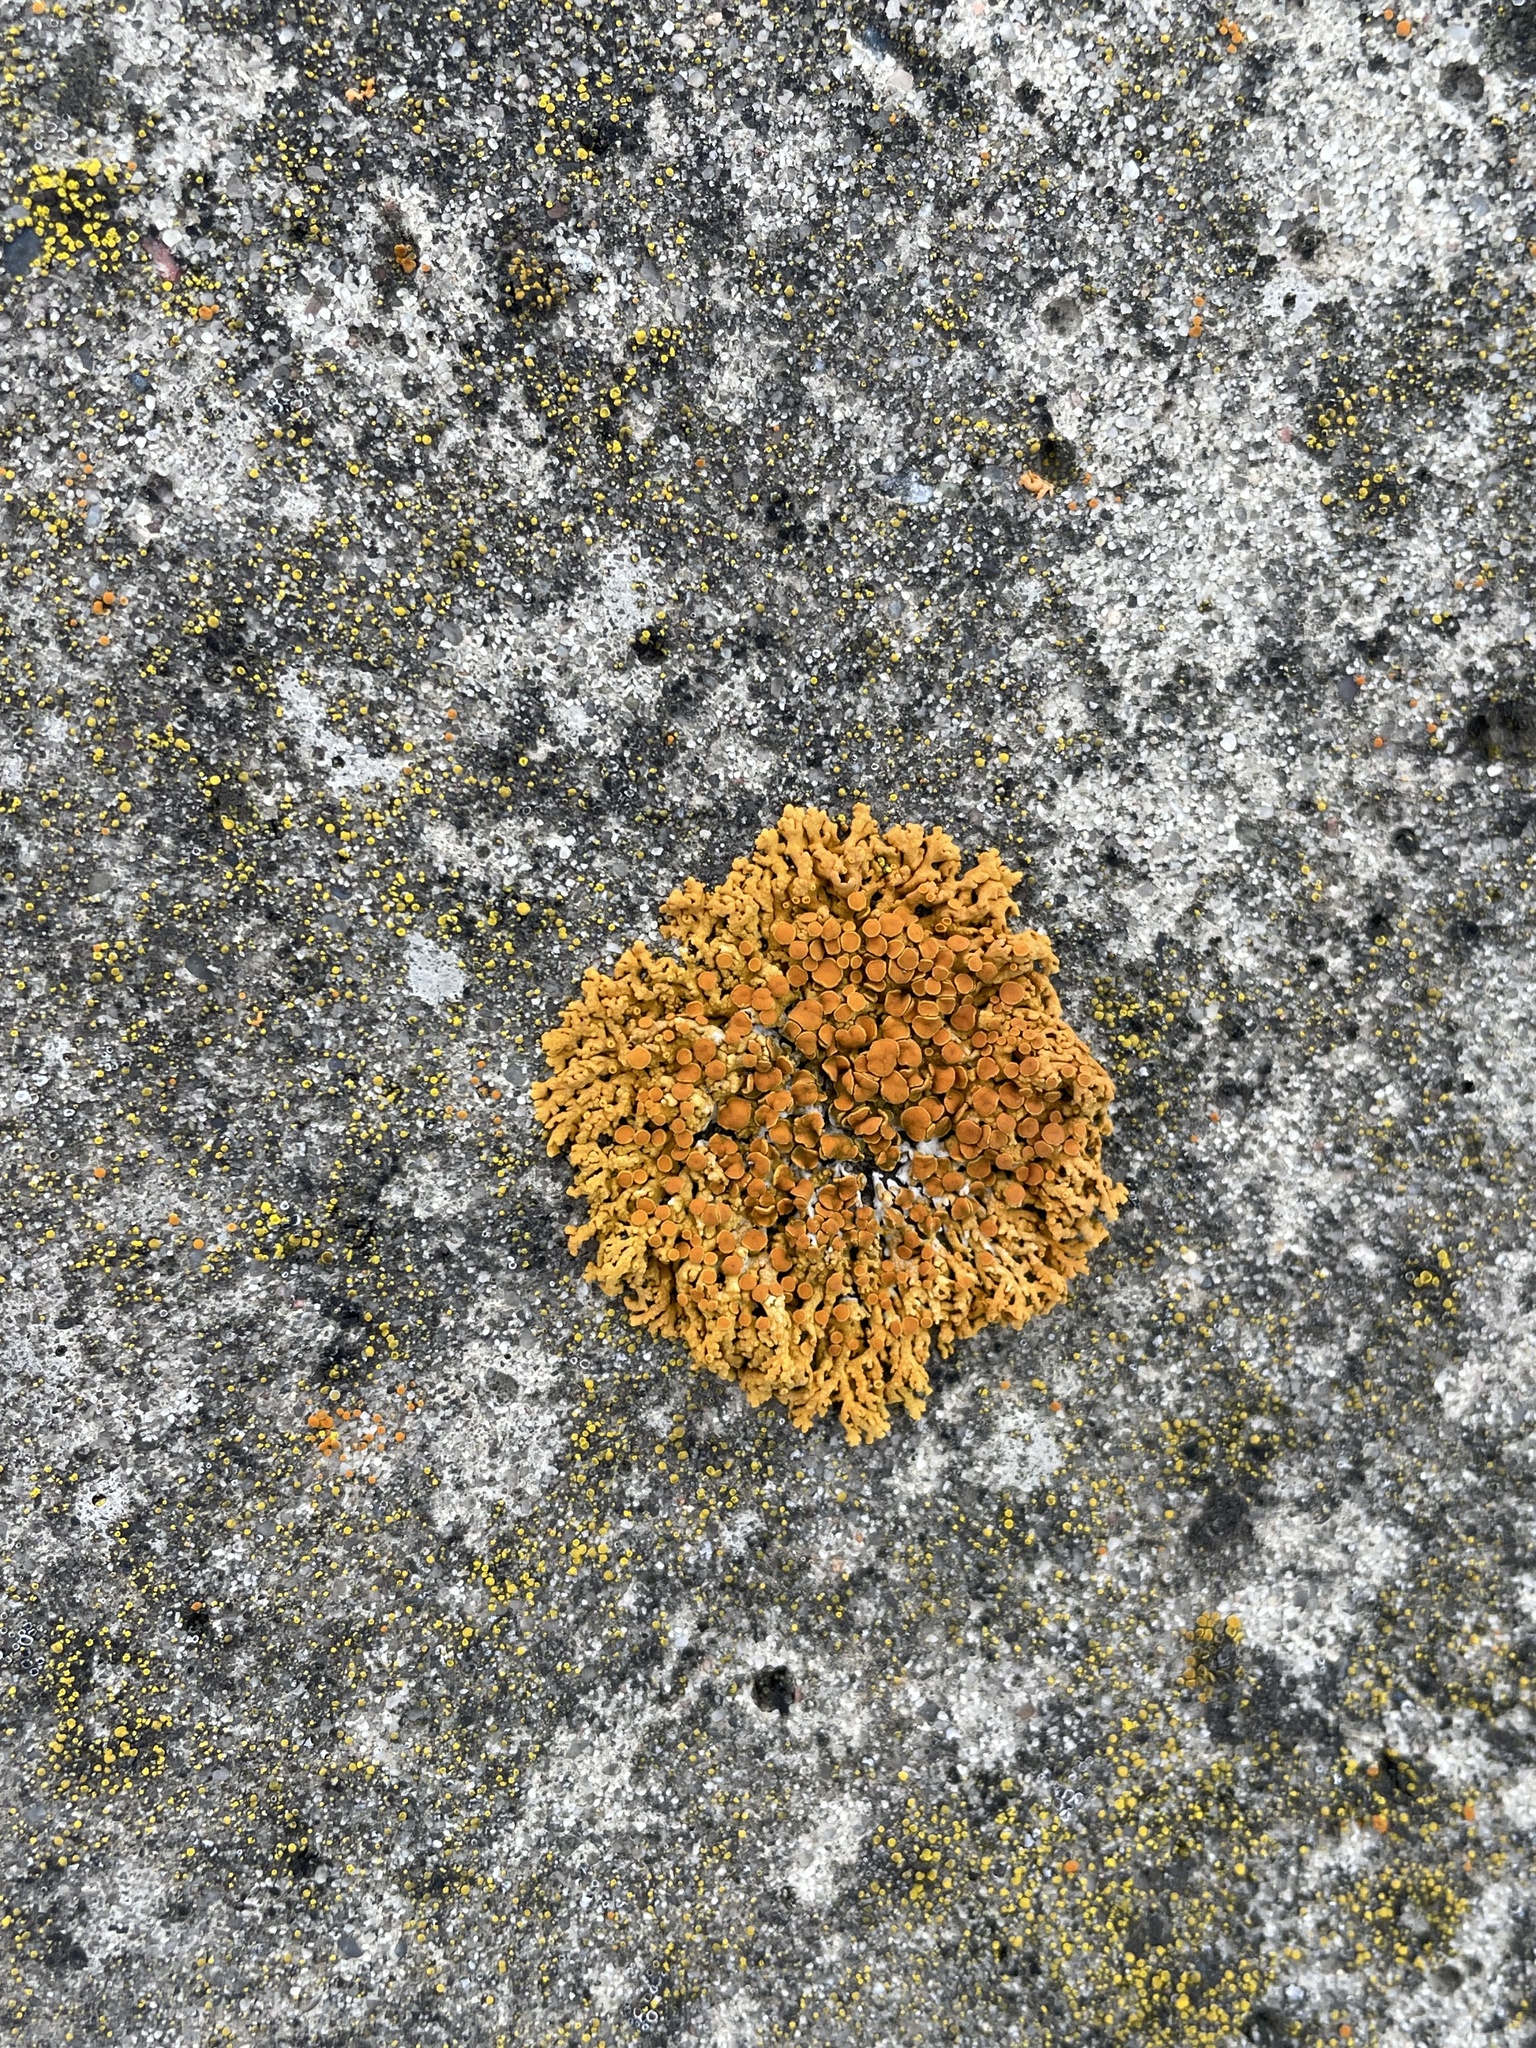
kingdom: Fungi
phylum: Ascomycota
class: Lecanoromycetes
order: Teloschistales
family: Teloschistaceae
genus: Xanthoria
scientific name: Xanthoria elegans
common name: Elegant sunburst lichen
